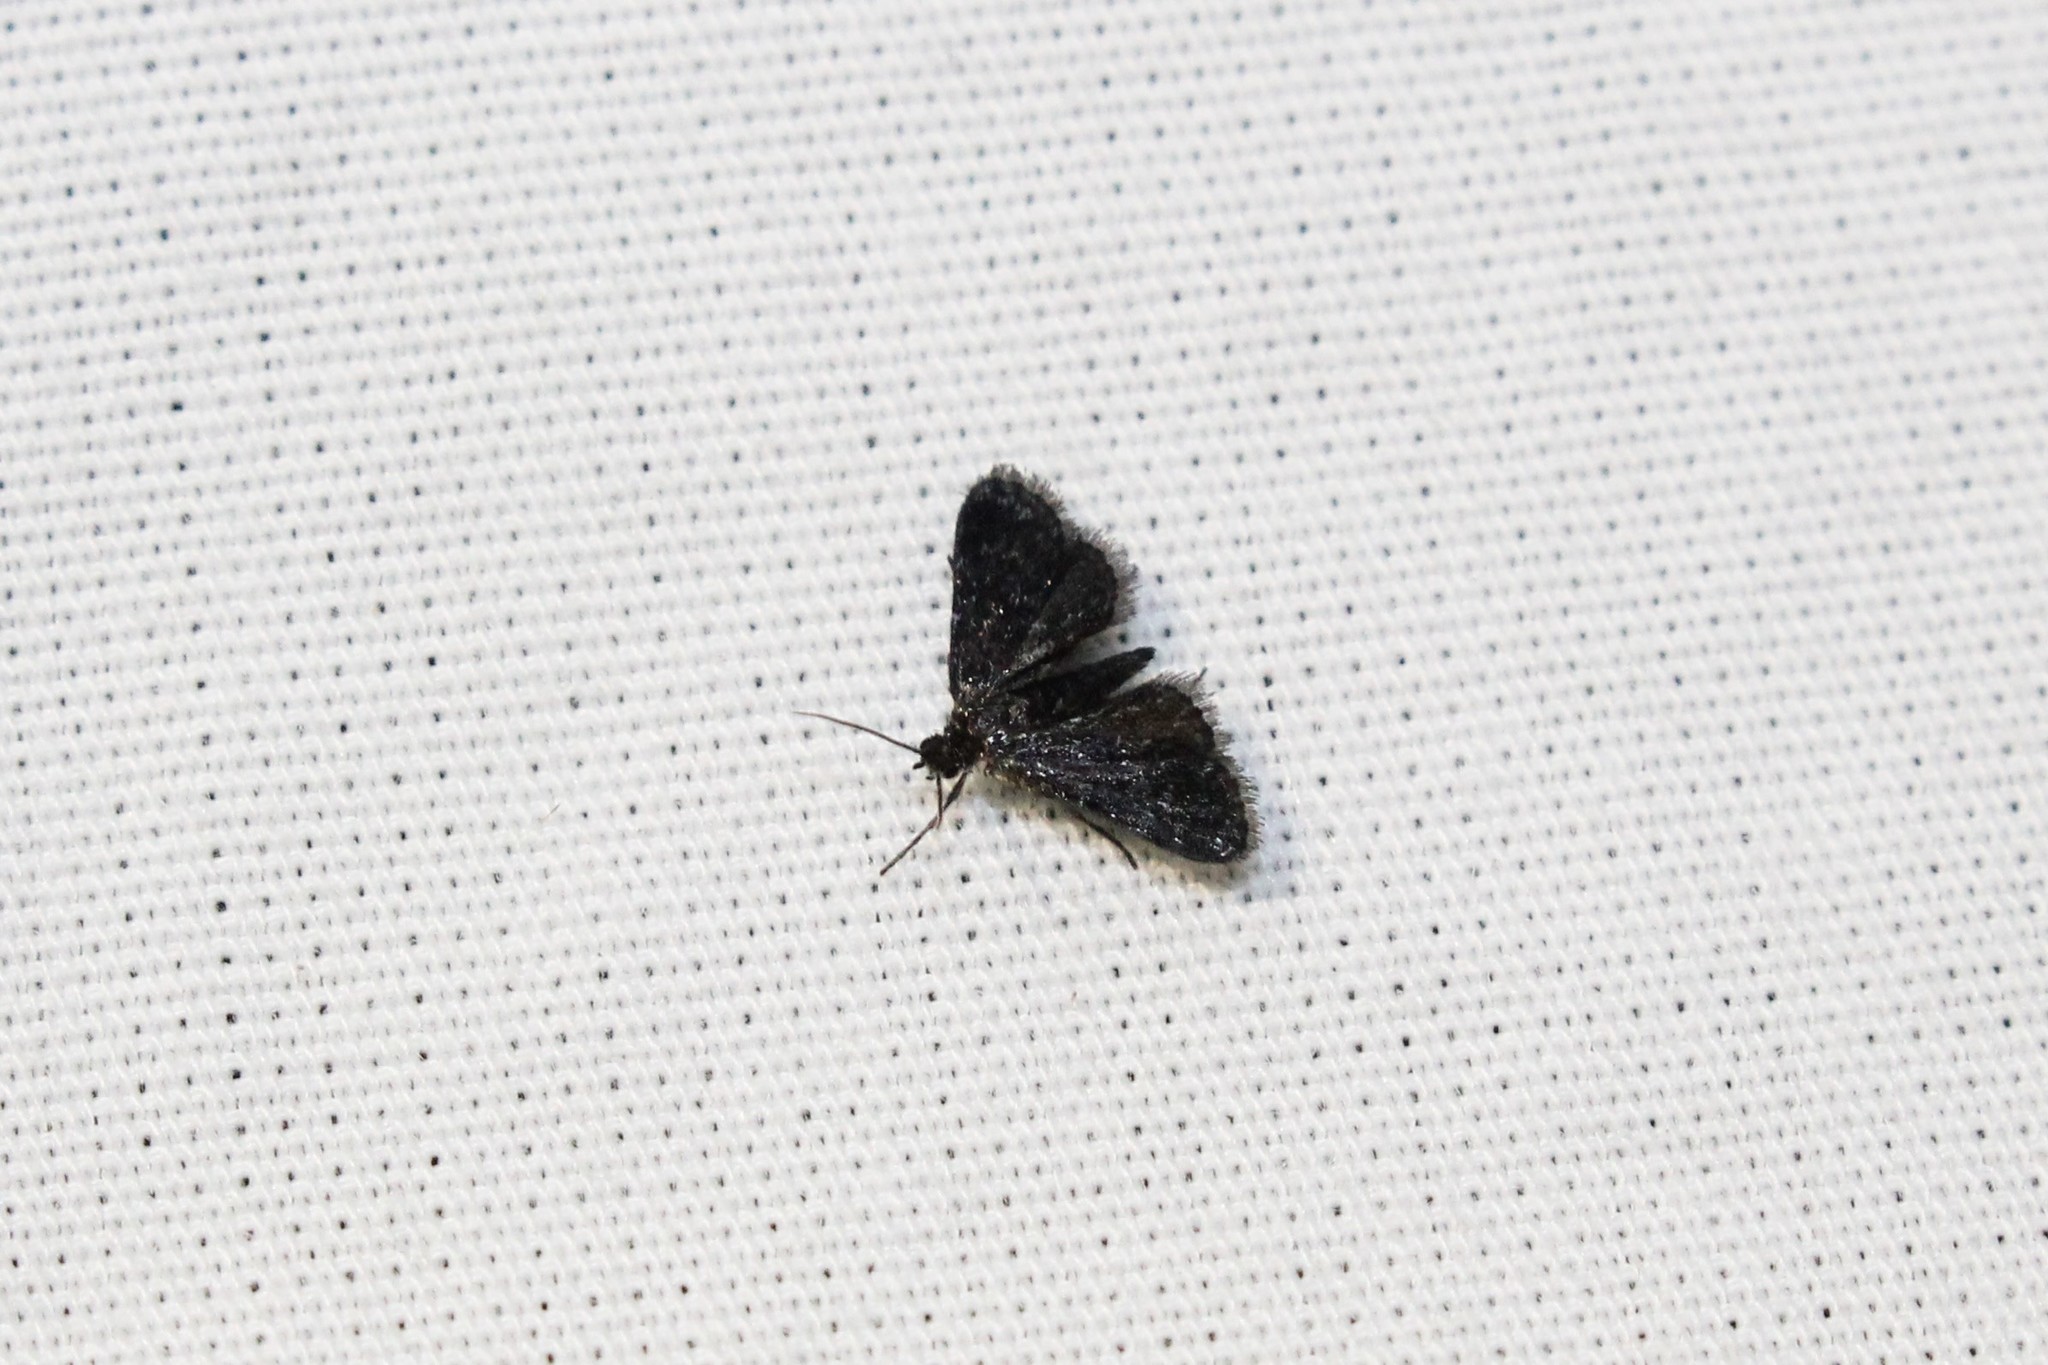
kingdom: Animalia
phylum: Arthropoda
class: Insecta
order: Lepidoptera
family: Crambidae
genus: Elophila
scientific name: Elophila tinealis
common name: Black duckweed moth
